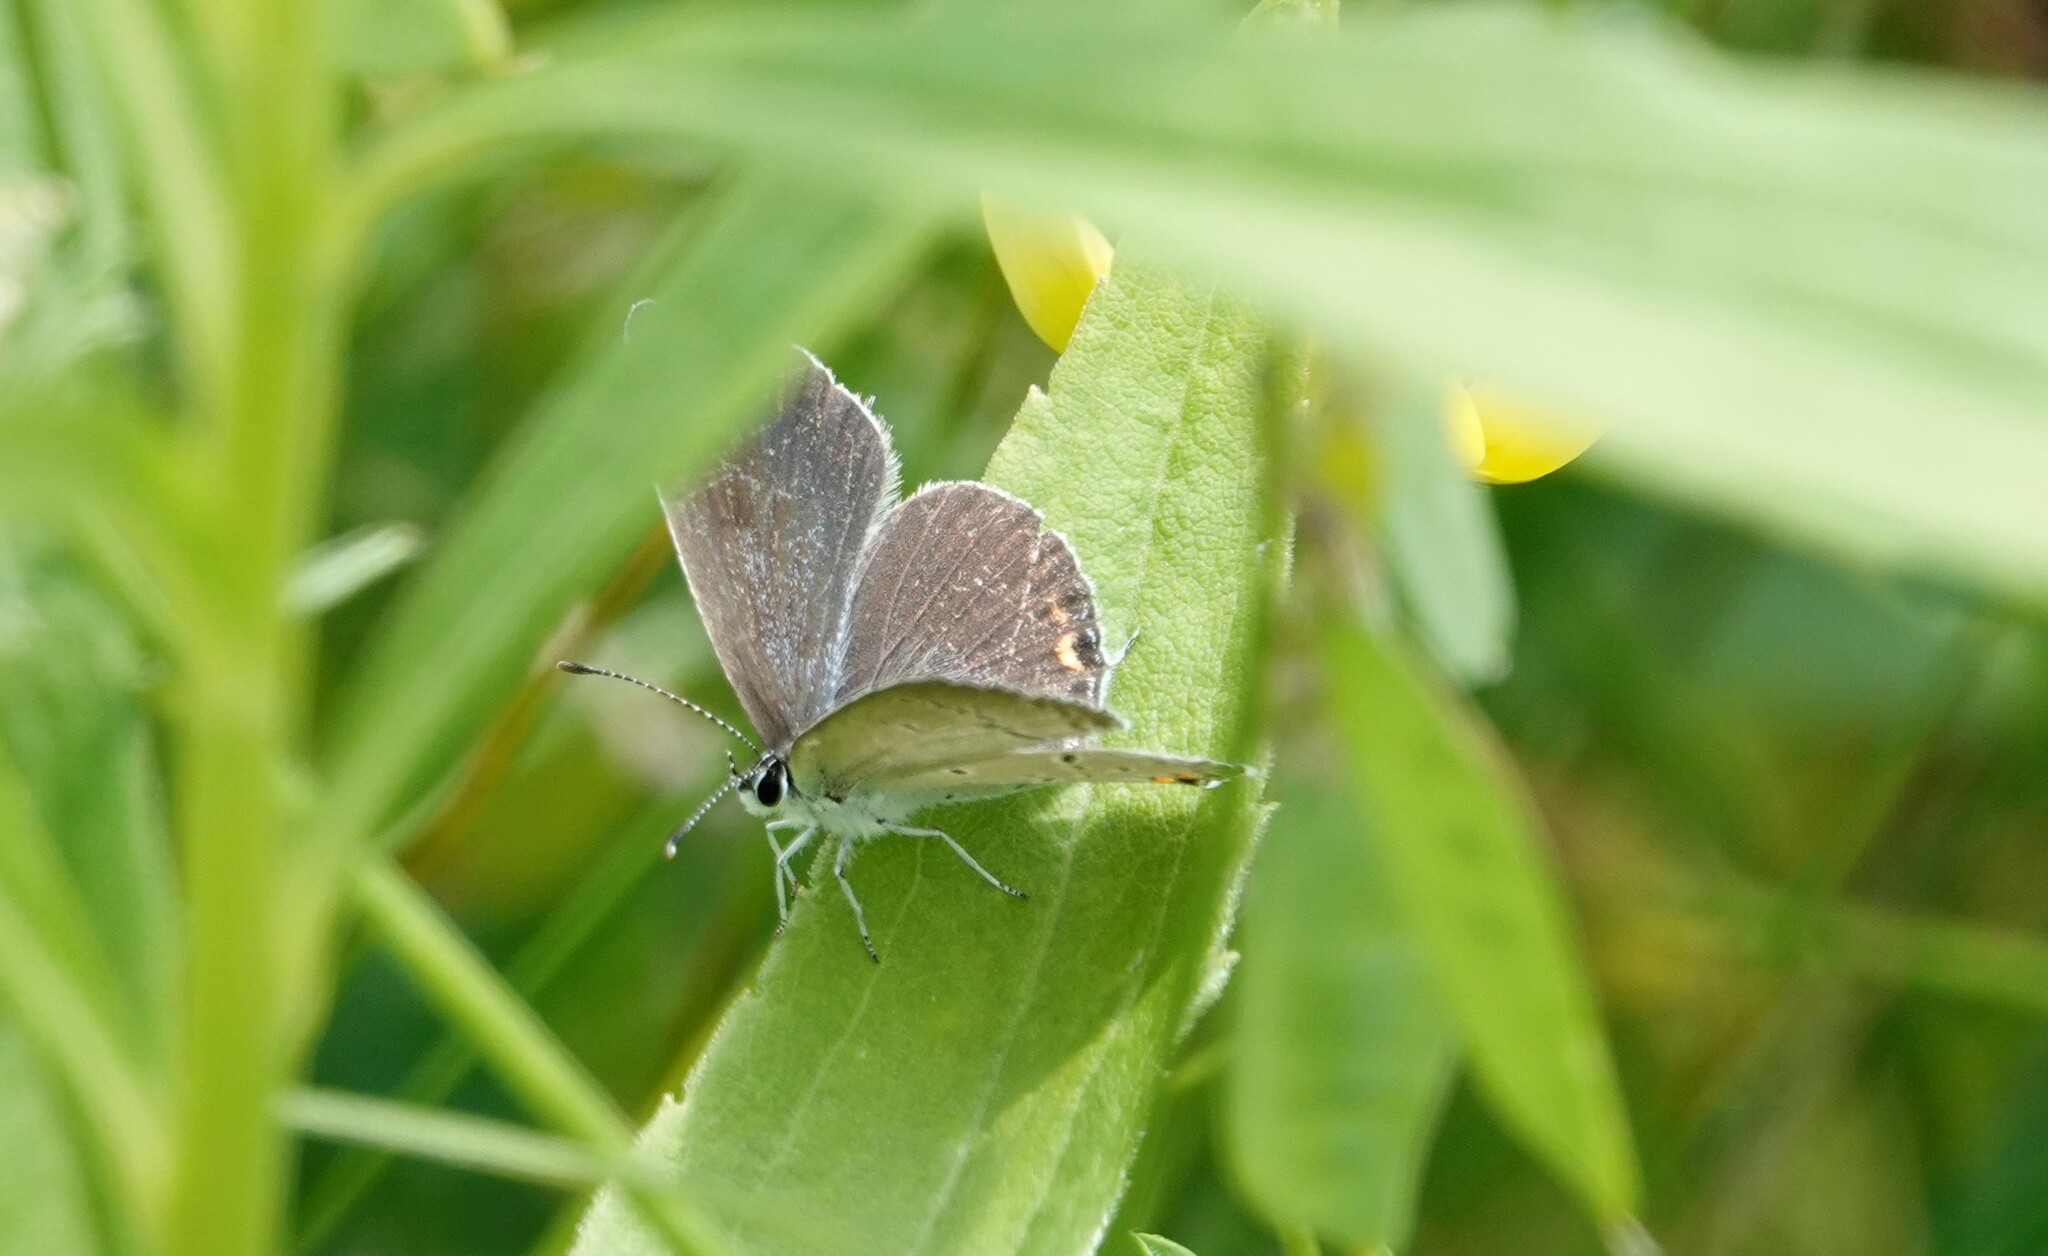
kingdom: Animalia
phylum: Arthropoda
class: Insecta
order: Lepidoptera
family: Lycaenidae
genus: Elkalyce
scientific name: Elkalyce comyntas
